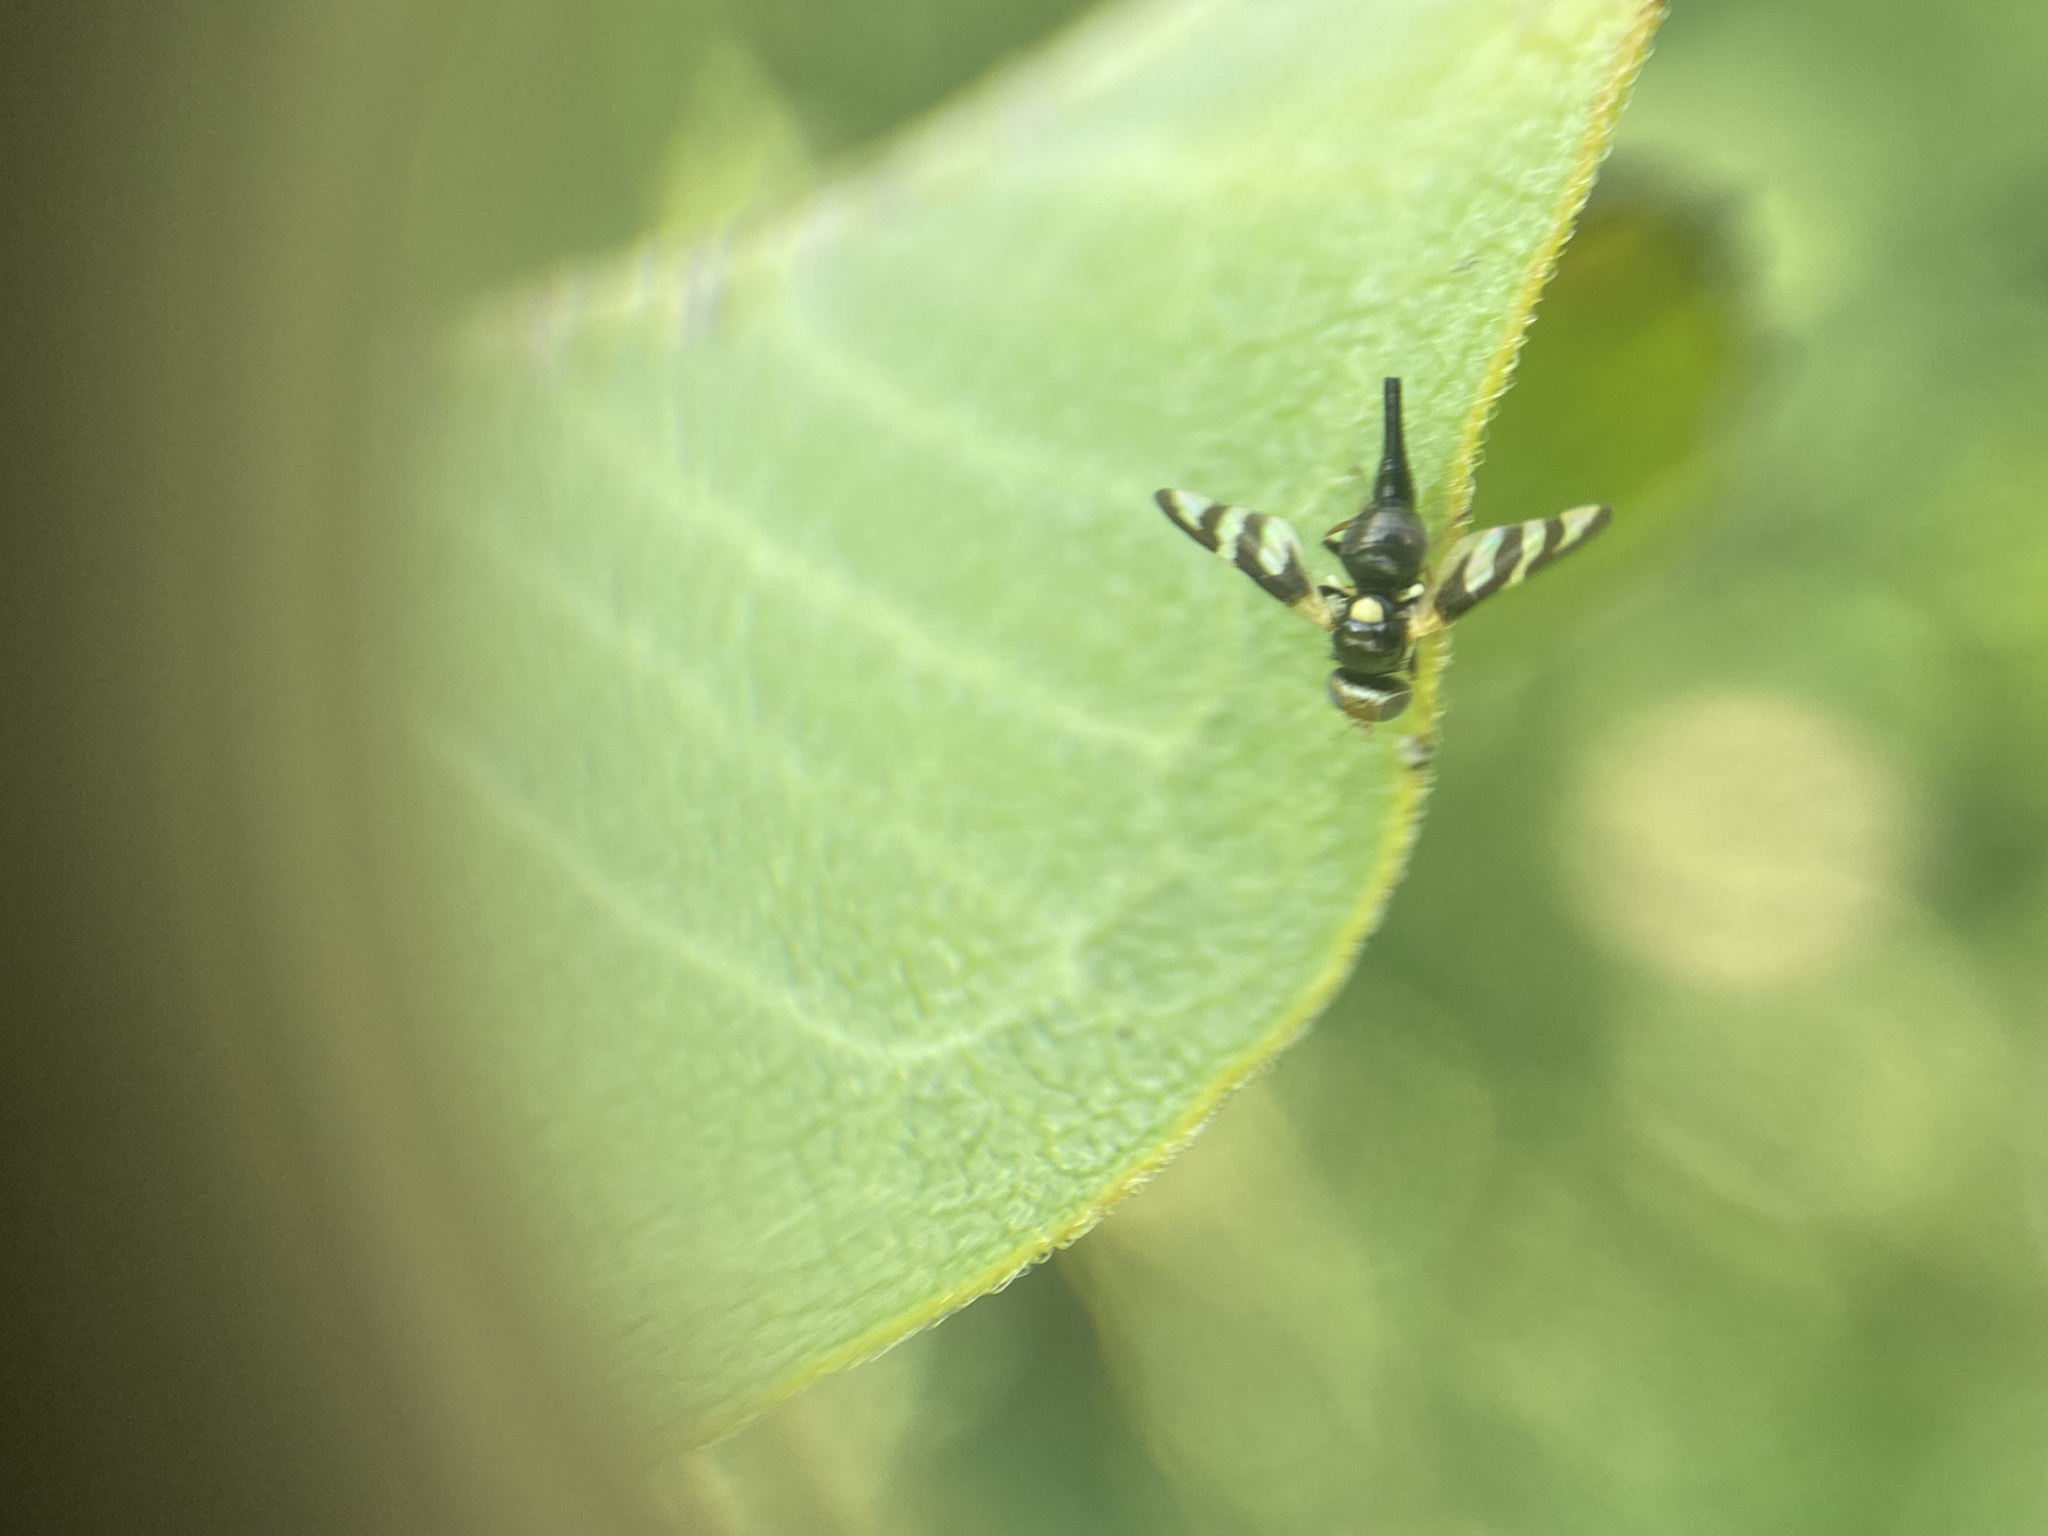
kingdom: Animalia
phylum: Arthropoda
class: Insecta
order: Diptera
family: Tephritidae
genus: Urophora
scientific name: Urophora quadrifasciata
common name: Knapweed seedhead fly
